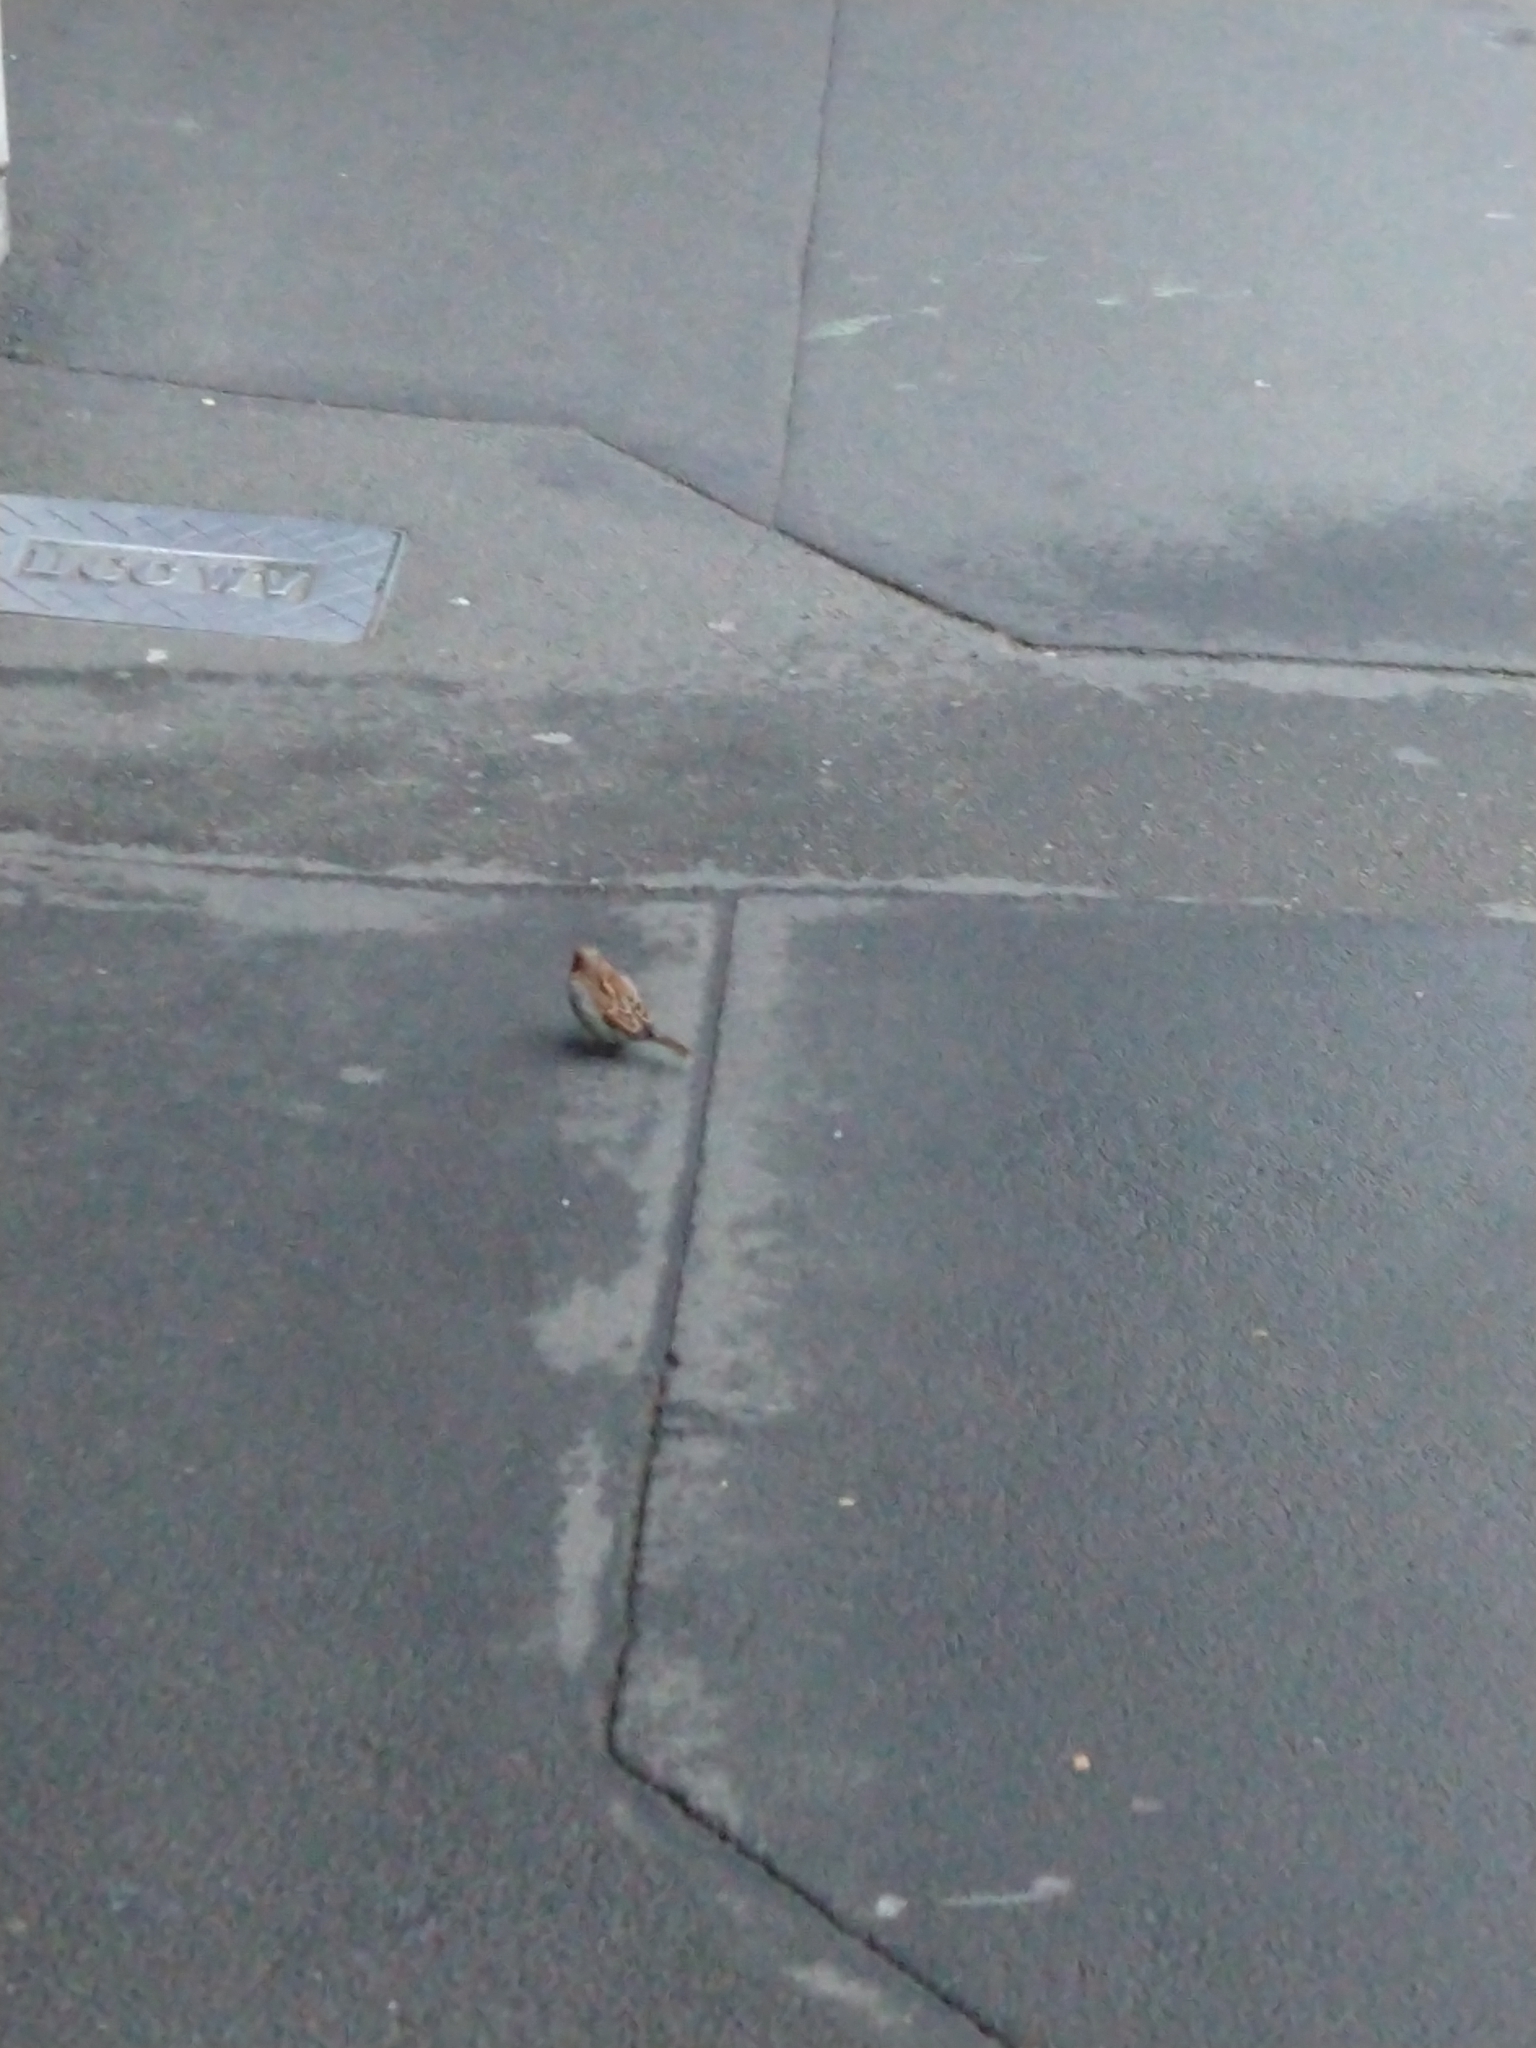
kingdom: Animalia
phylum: Chordata
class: Aves
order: Passeriformes
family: Passeridae
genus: Passer
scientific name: Passer domesticus
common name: House sparrow
